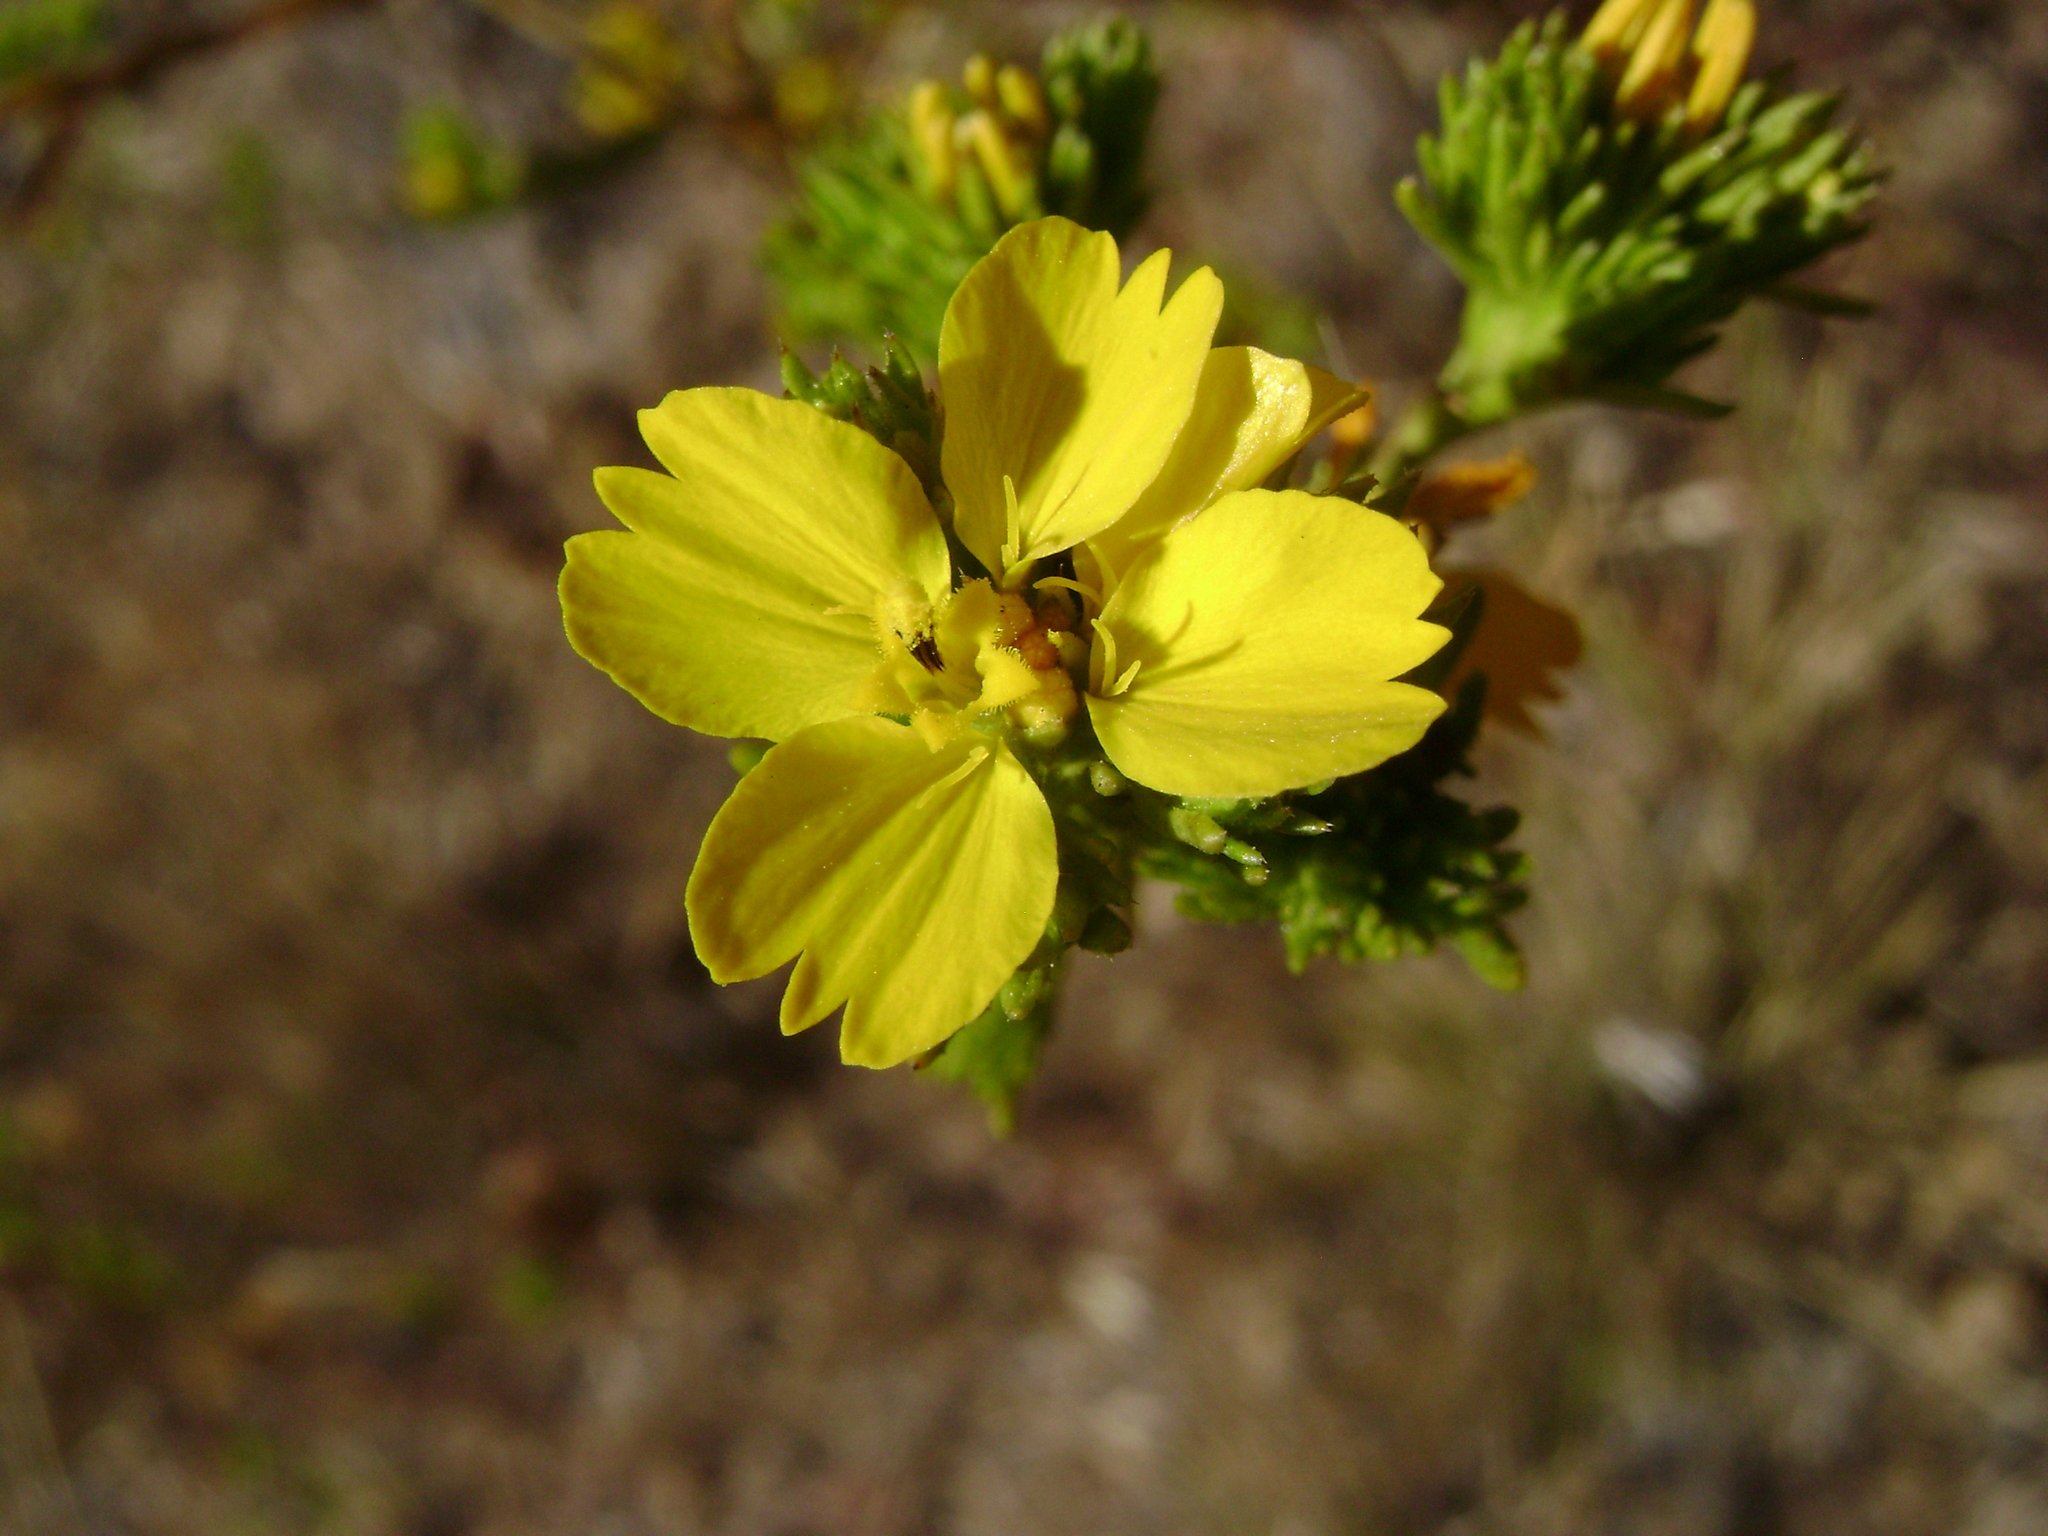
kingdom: Plantae
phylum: Tracheophyta
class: Magnoliopsida
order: Asterales
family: Asteraceae
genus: Deinandra
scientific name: Deinandra fasciculata
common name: Clustered tarweed
